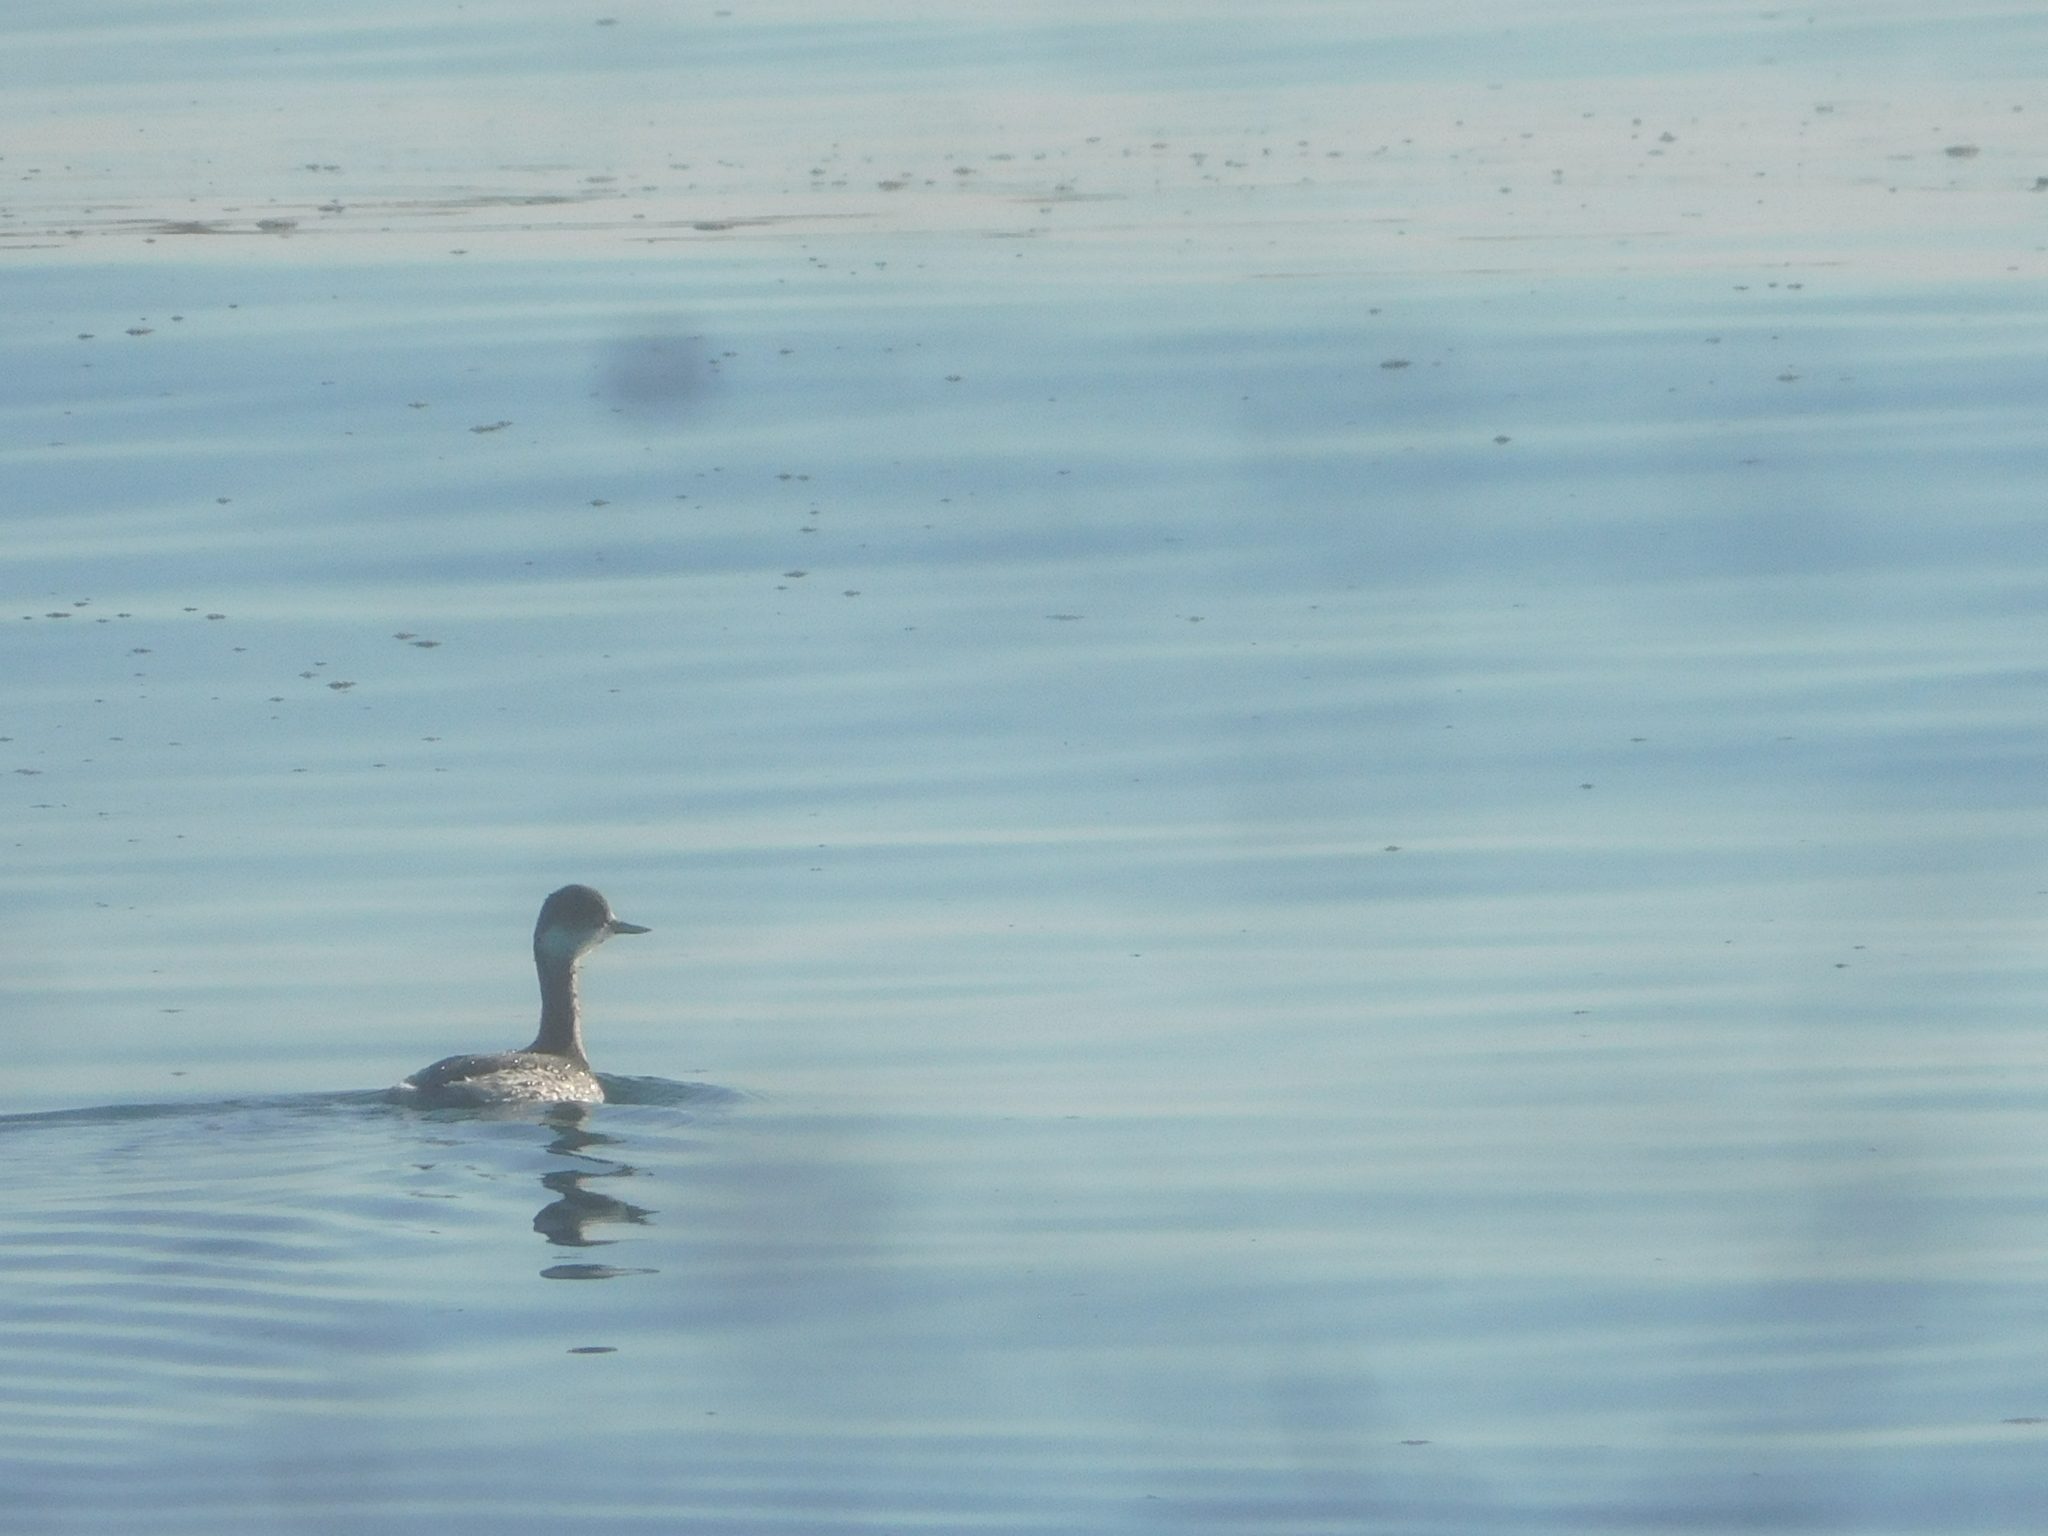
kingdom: Animalia
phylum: Chordata
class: Aves
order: Podicipediformes
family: Podicipedidae
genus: Podiceps
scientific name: Podiceps nigricollis
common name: Black-necked grebe
